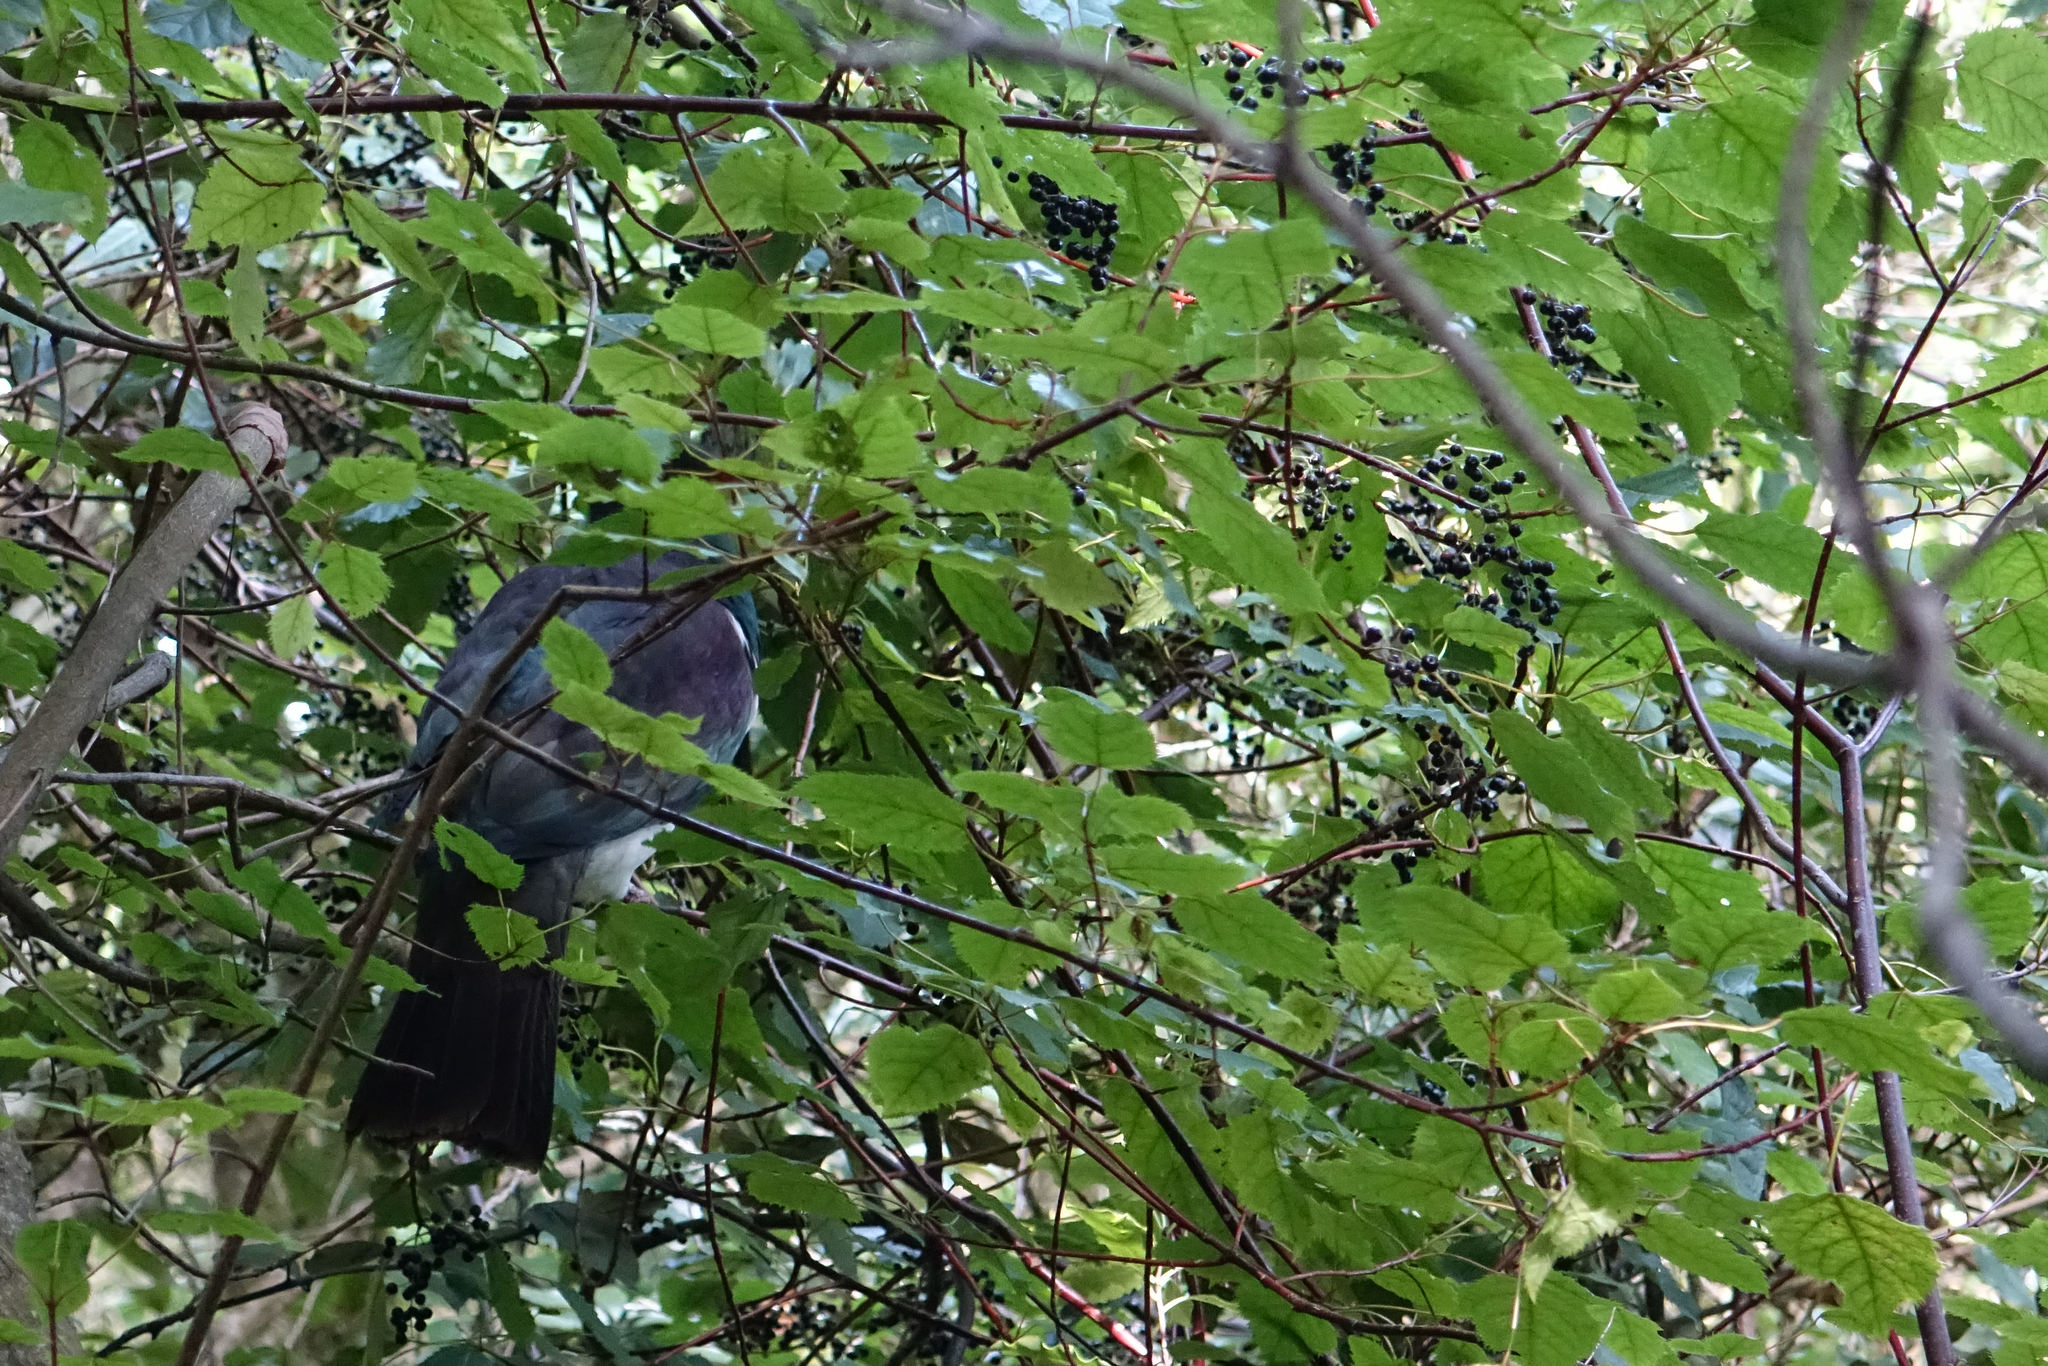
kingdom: Animalia
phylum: Chordata
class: Aves
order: Columbiformes
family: Columbidae
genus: Hemiphaga
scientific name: Hemiphaga novaeseelandiae
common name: New zealand pigeon
